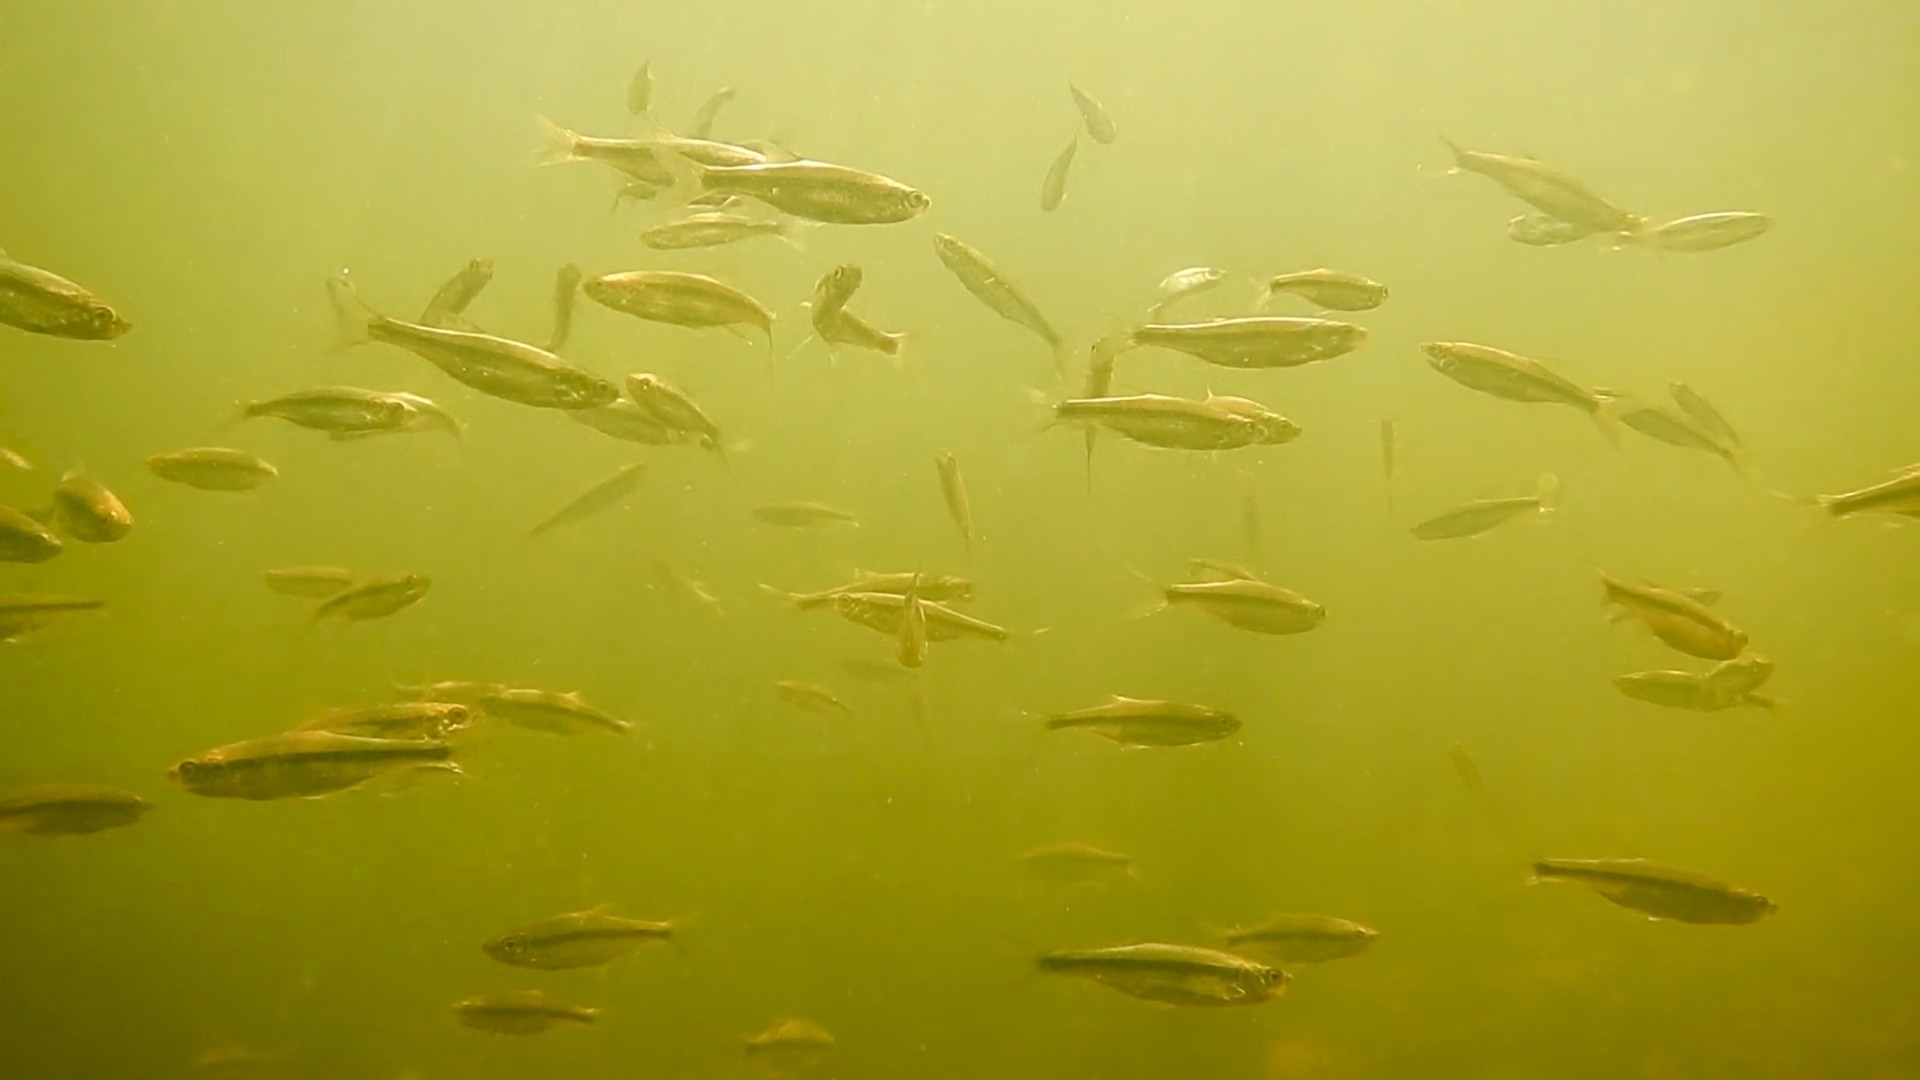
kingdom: Animalia
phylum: Chordata
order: Cypriniformes
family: Cyprinidae
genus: Notemigonus
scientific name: Notemigonus crysoleucas
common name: Golden shiner
